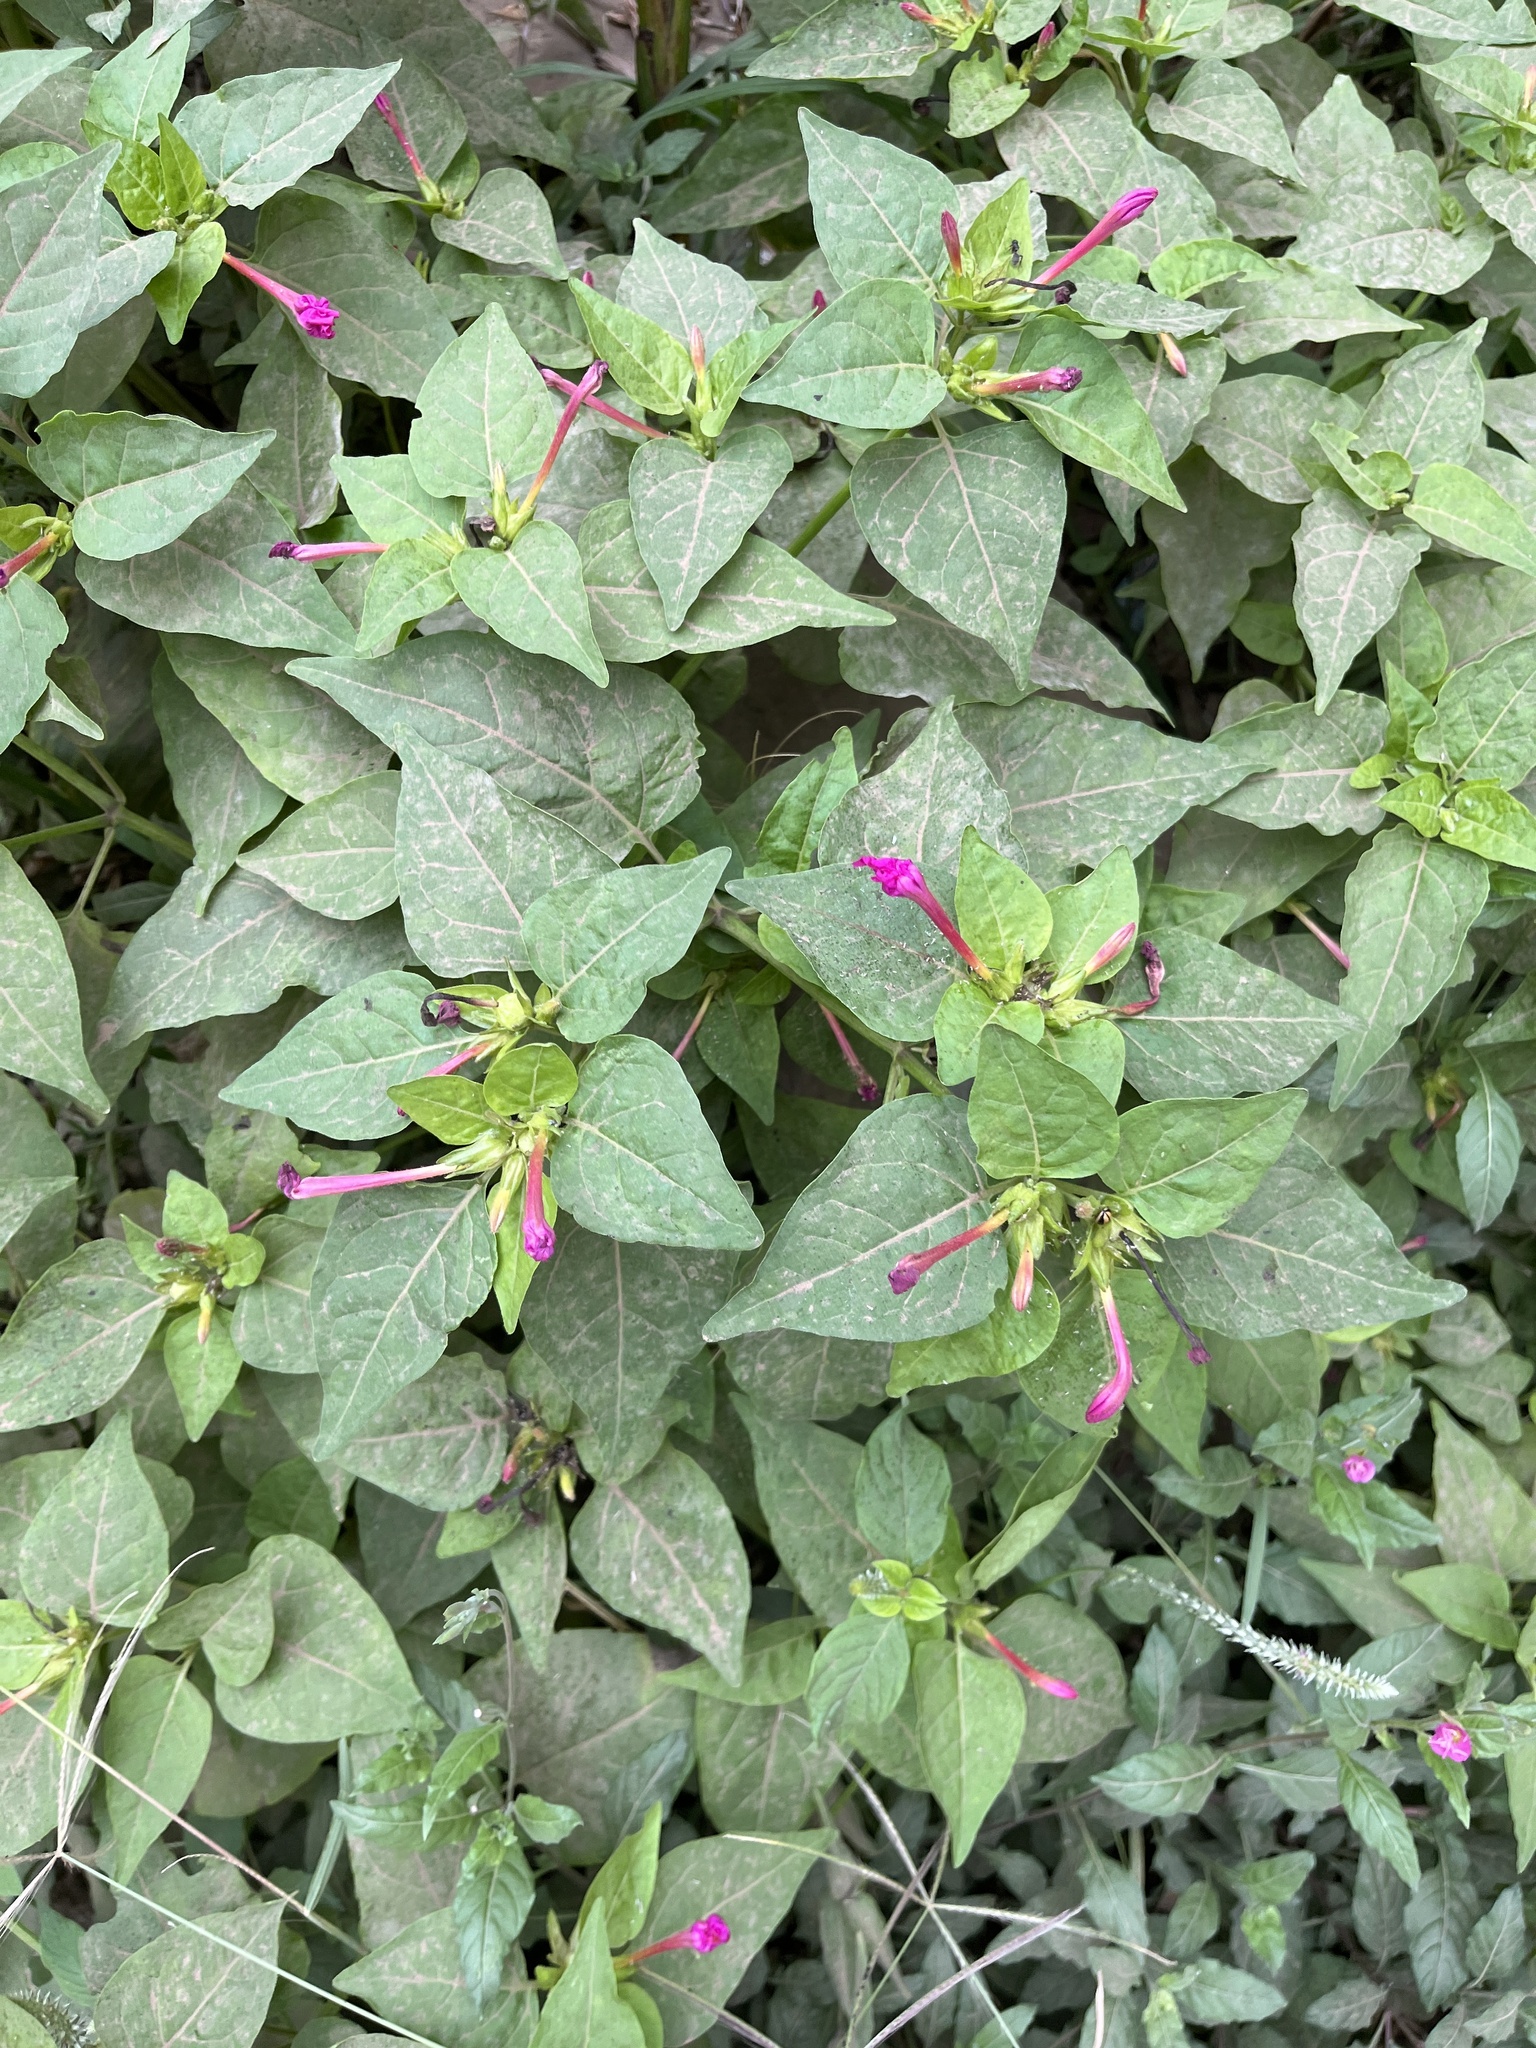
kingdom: Plantae
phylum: Tracheophyta
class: Magnoliopsida
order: Caryophyllales
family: Nyctaginaceae
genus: Mirabilis
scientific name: Mirabilis jalapa
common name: Marvel-of-peru
